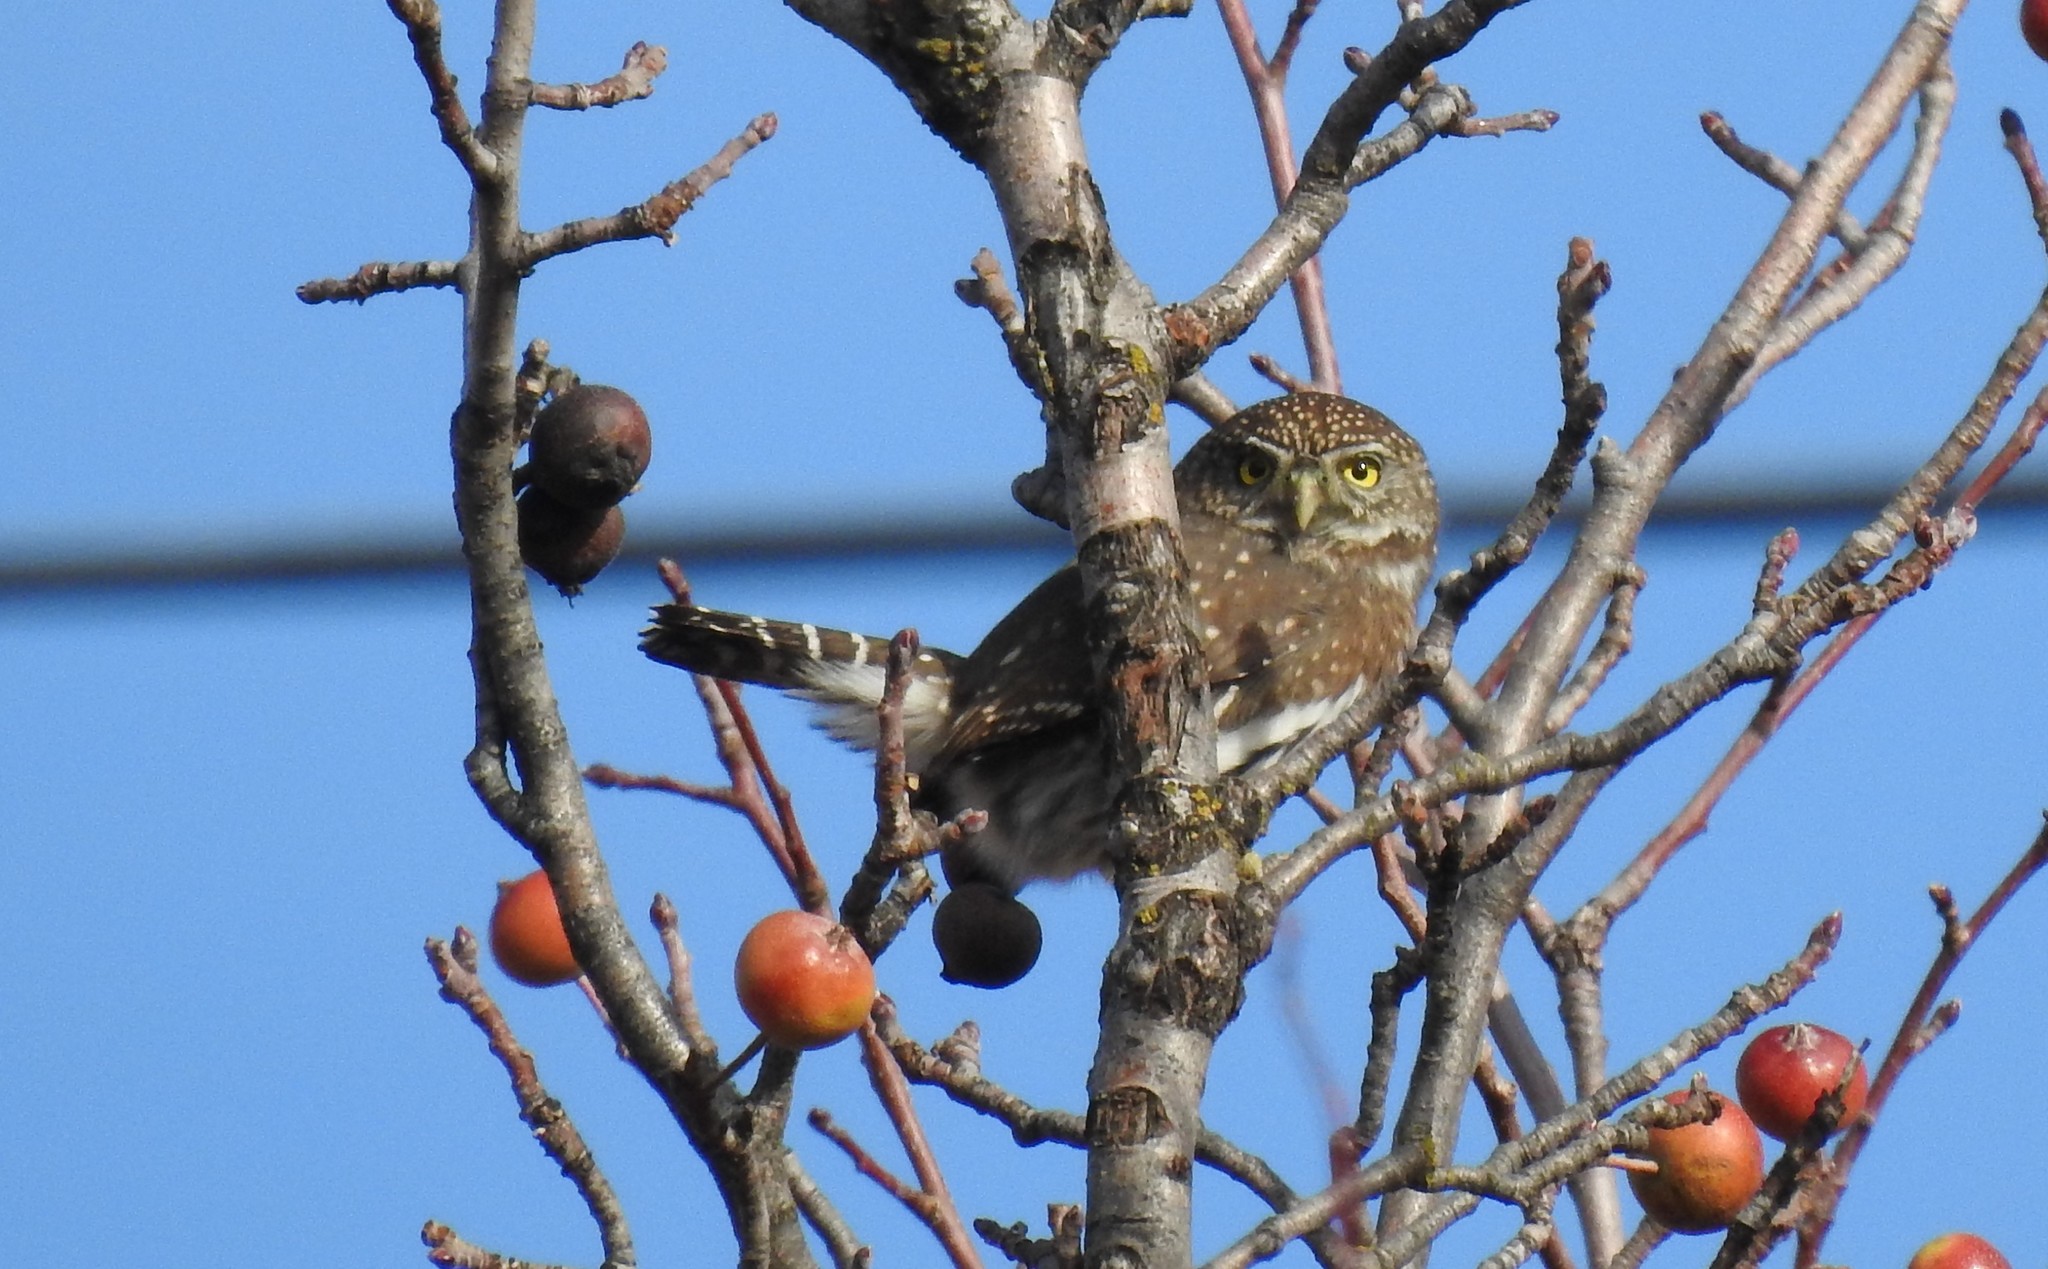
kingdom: Animalia
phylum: Chordata
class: Aves
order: Strigiformes
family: Strigidae
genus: Glaucidium
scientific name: Glaucidium gnoma
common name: Northern pygmy-owl
